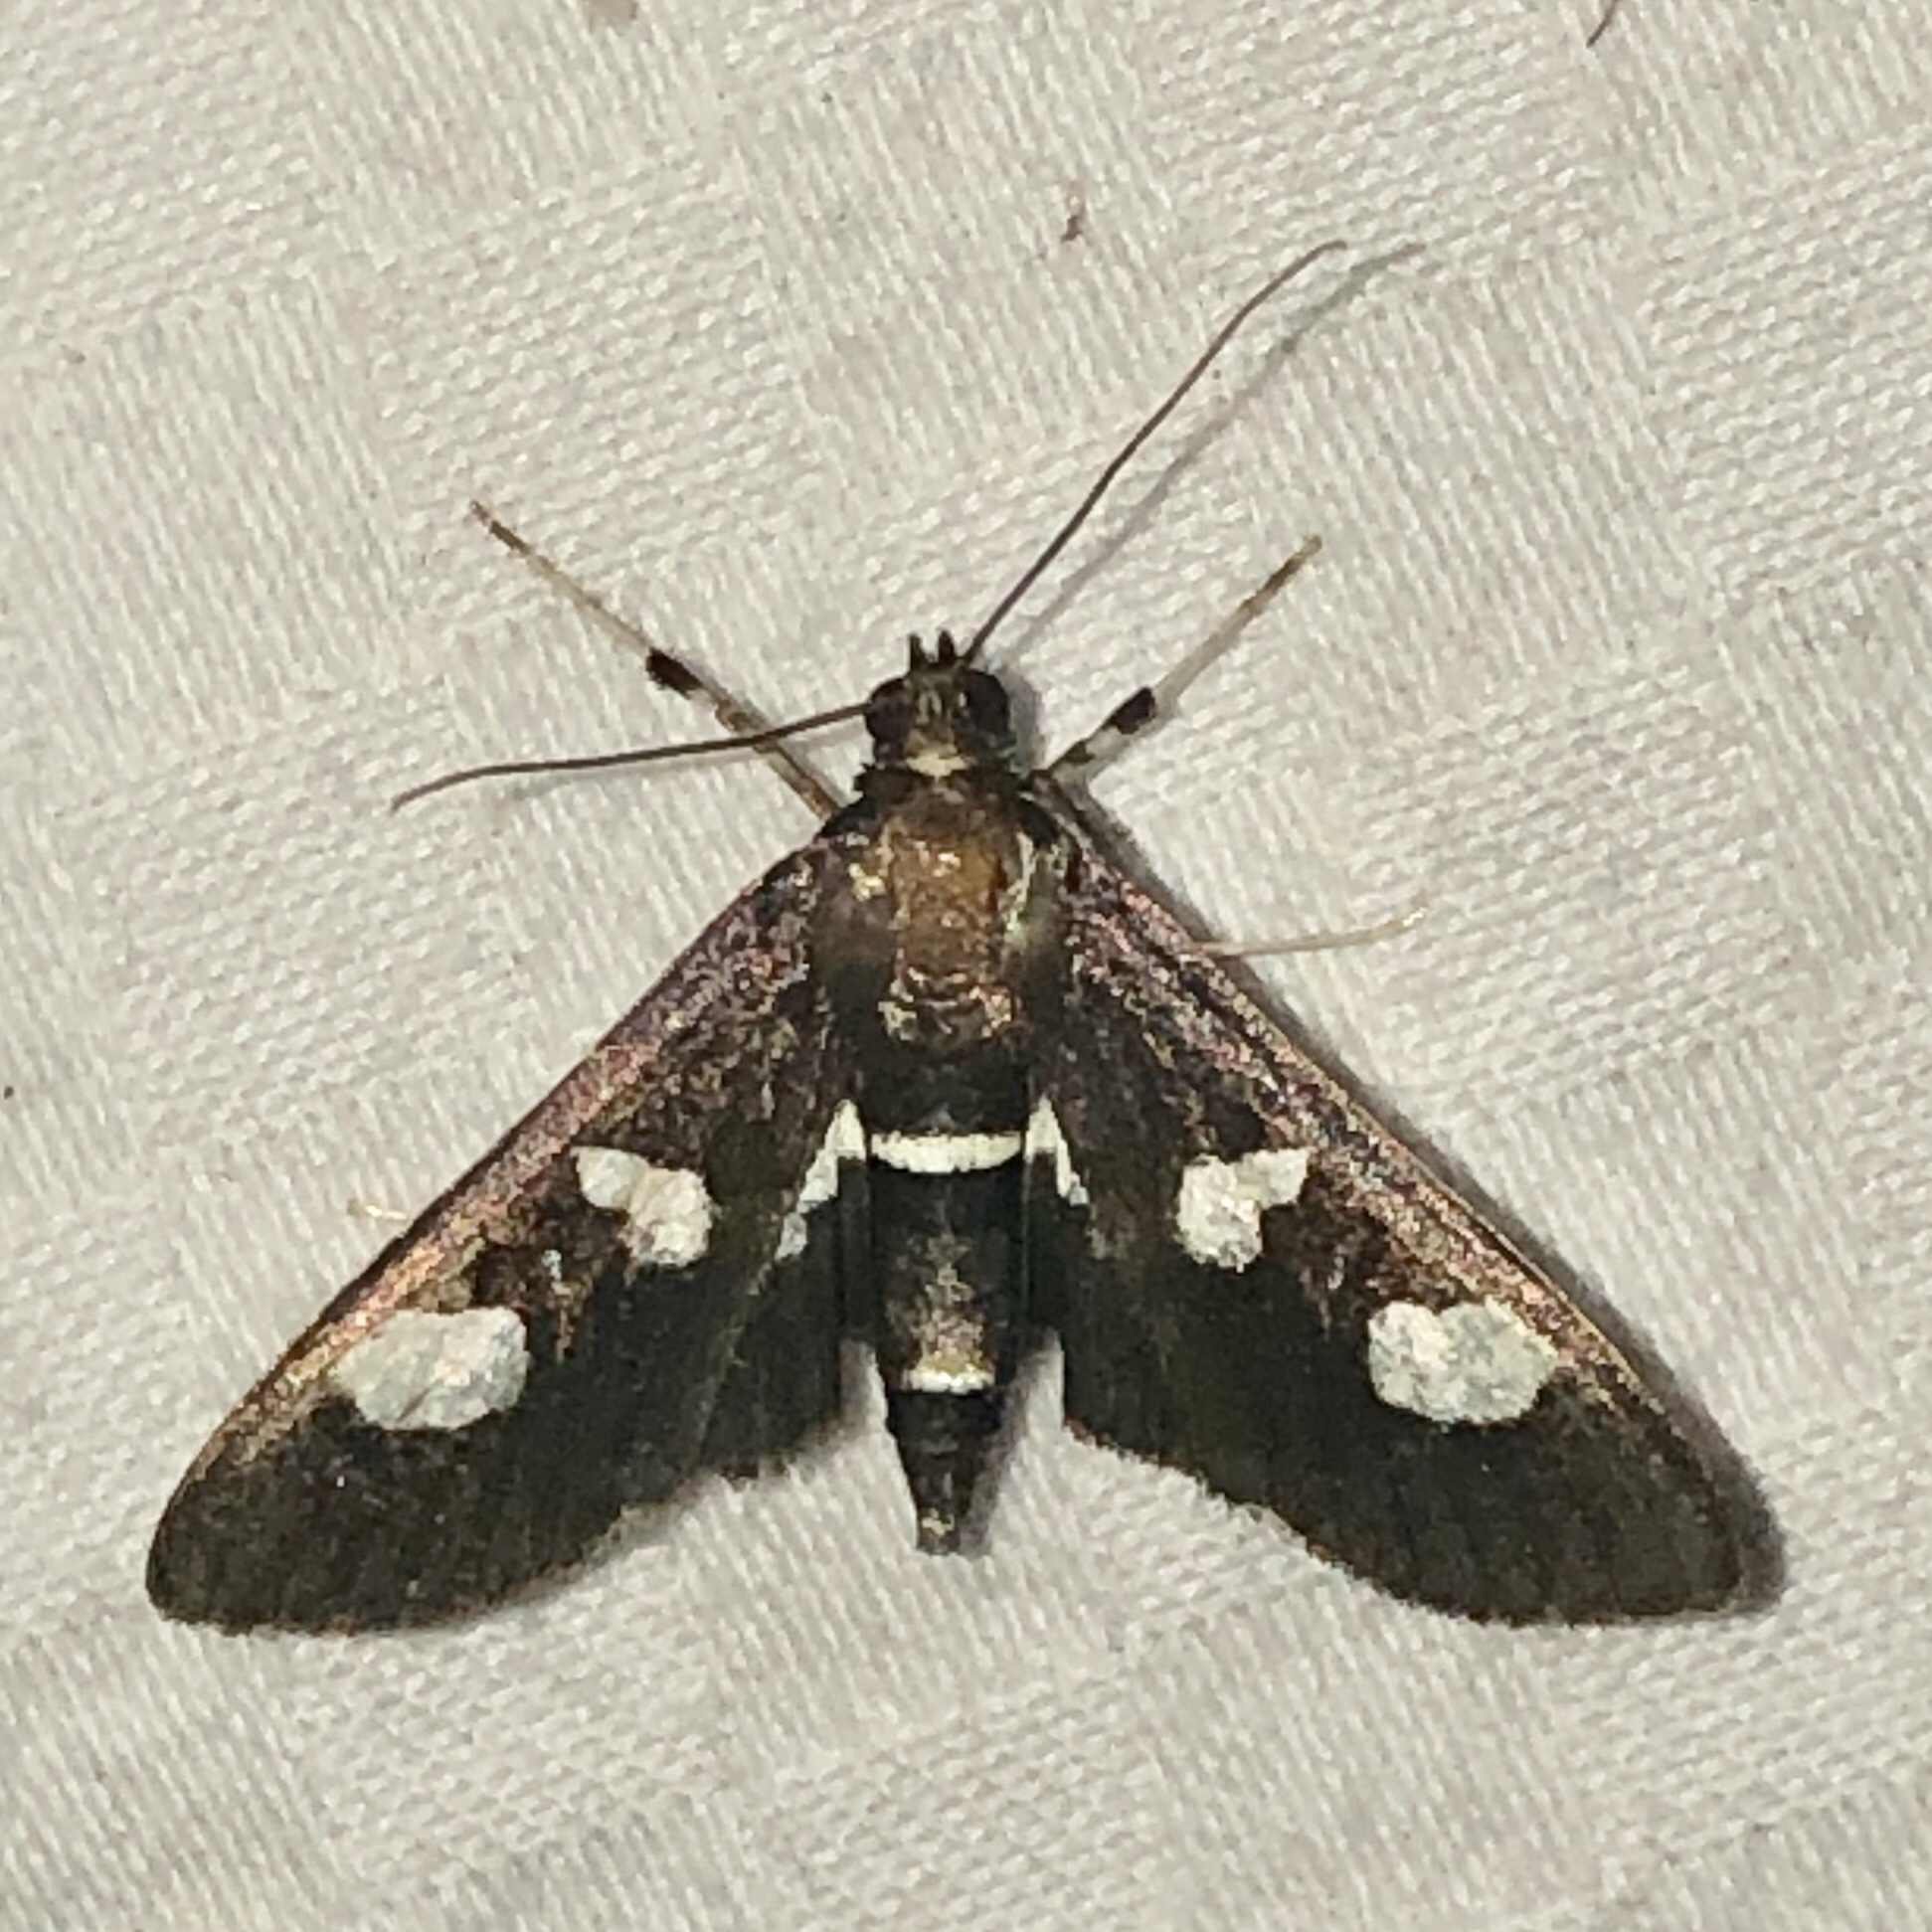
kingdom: Animalia
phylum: Arthropoda
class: Insecta
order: Lepidoptera
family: Crambidae
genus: Desmia
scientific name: Desmia
